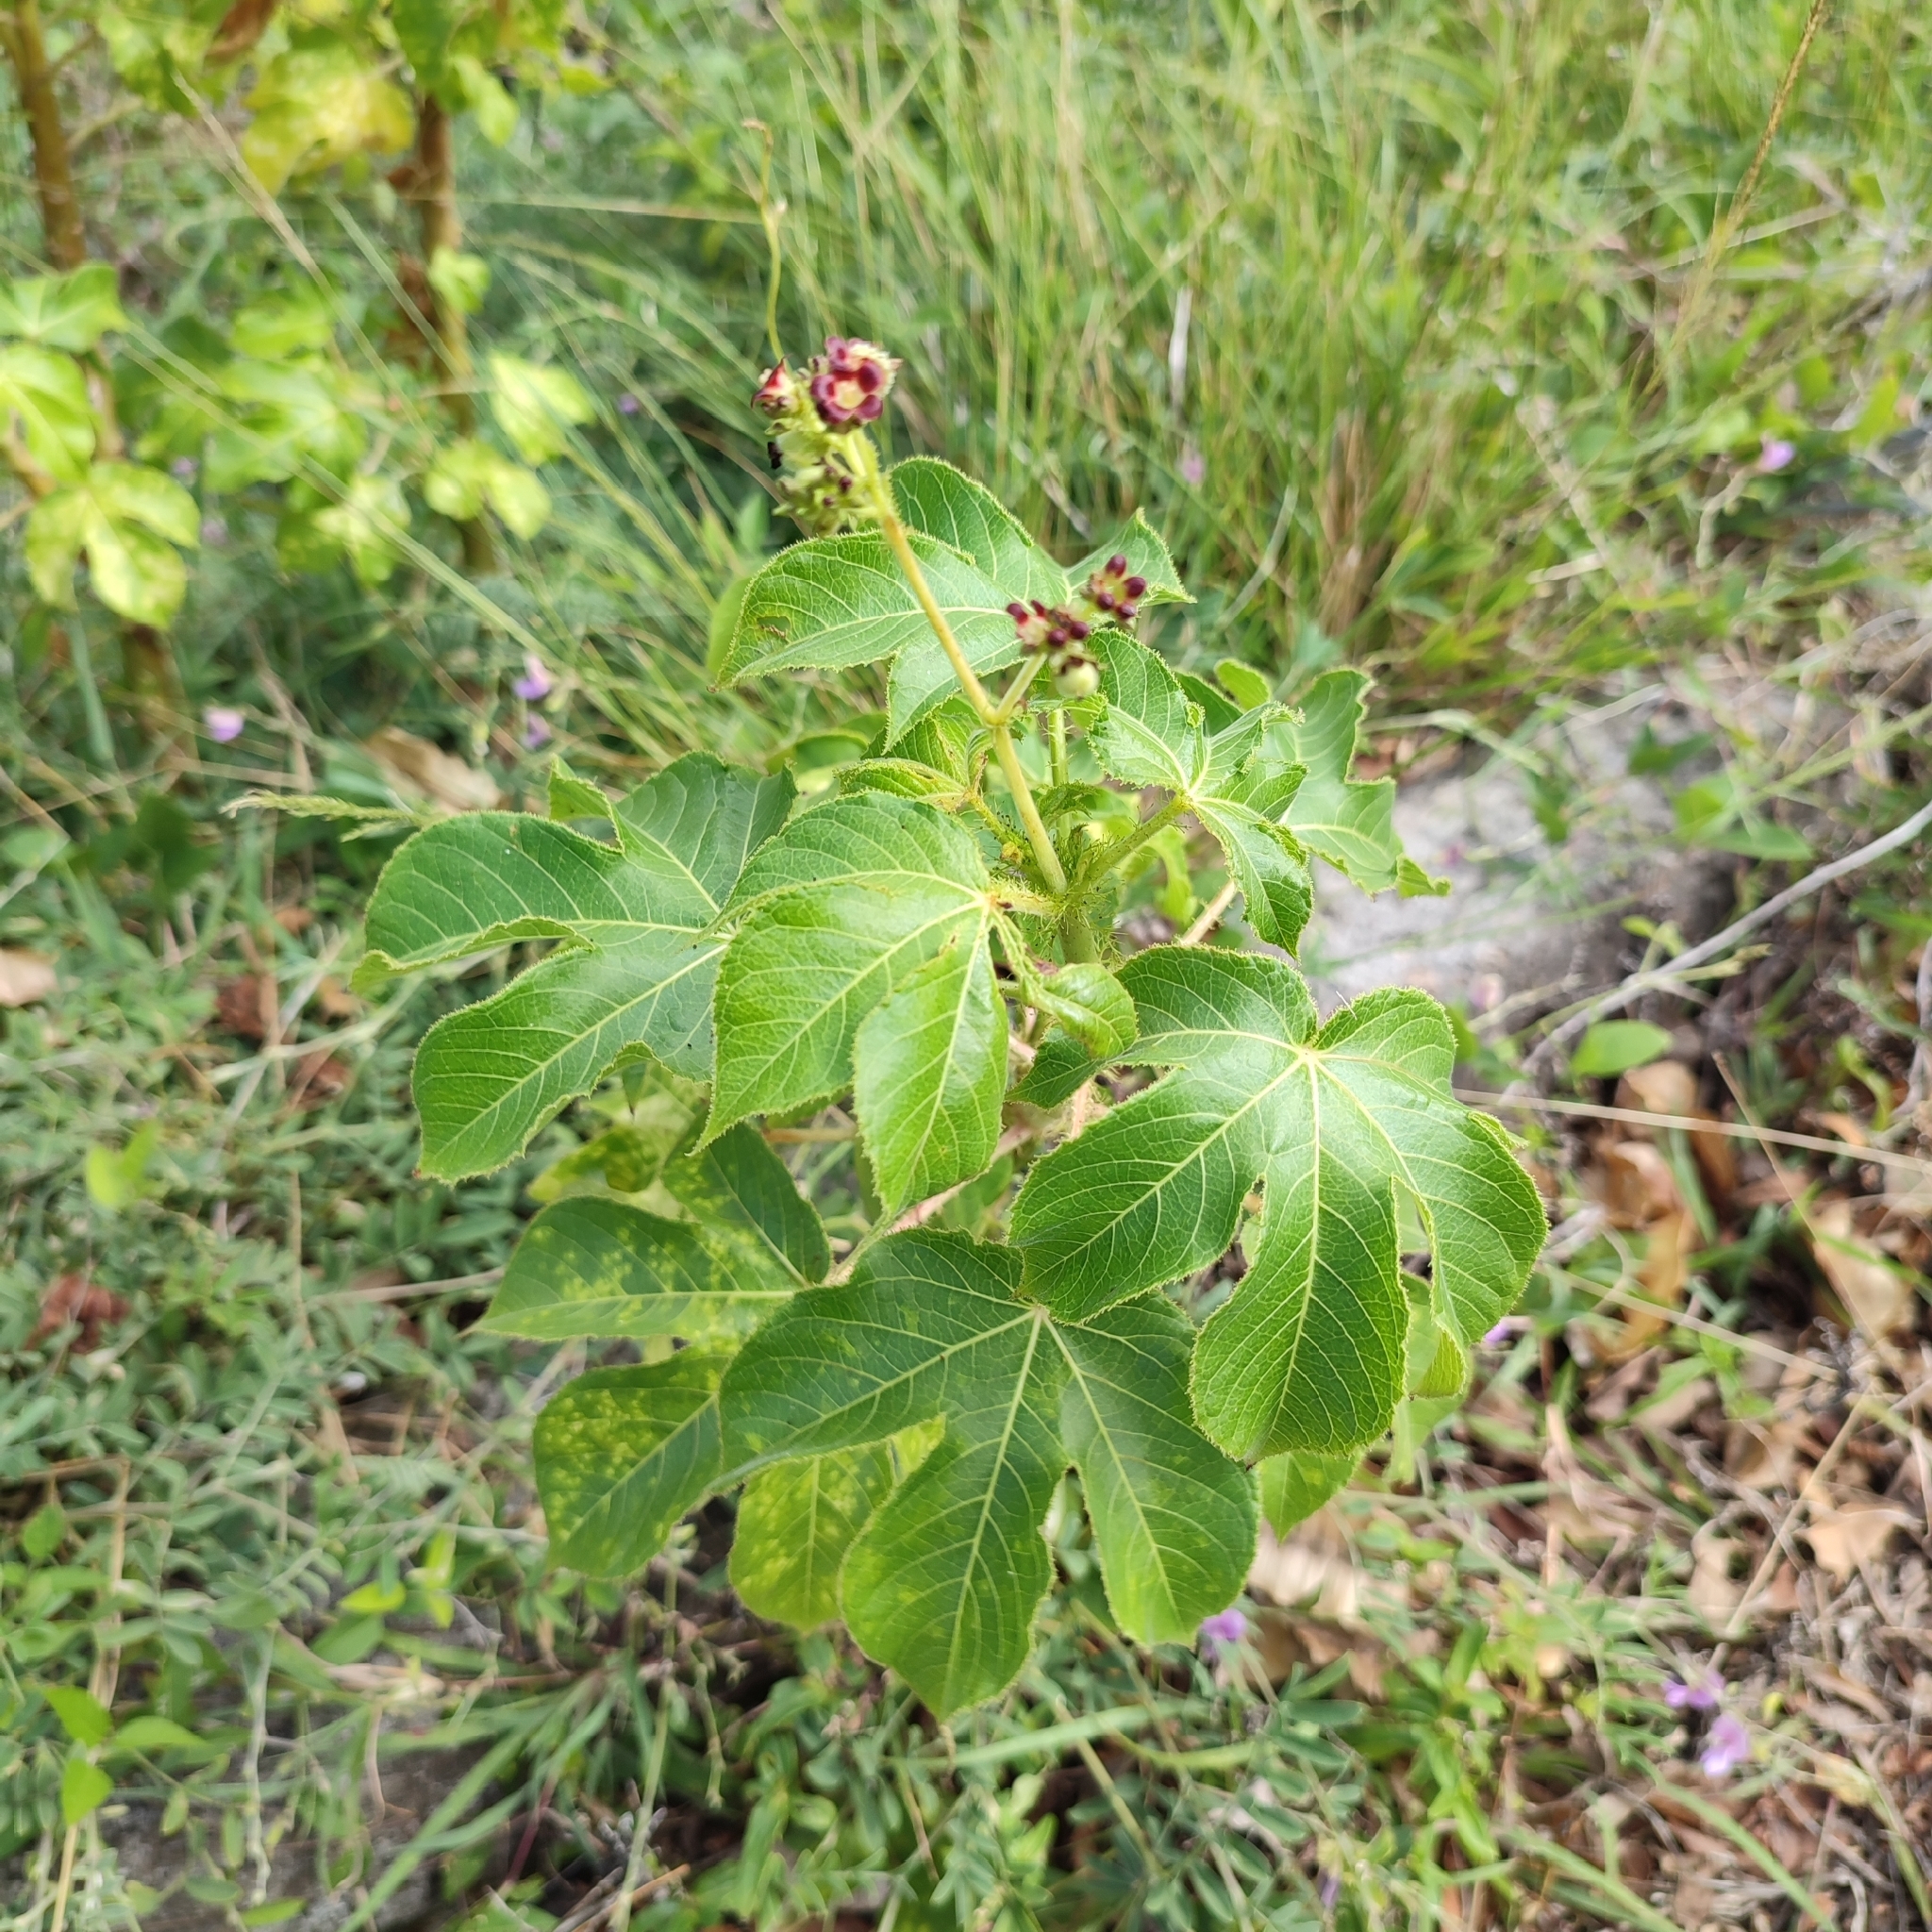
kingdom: Plantae
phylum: Tracheophyta
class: Magnoliopsida
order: Malpighiales
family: Euphorbiaceae
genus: Jatropha
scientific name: Jatropha gossypiifolia
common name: Bellyache bush
